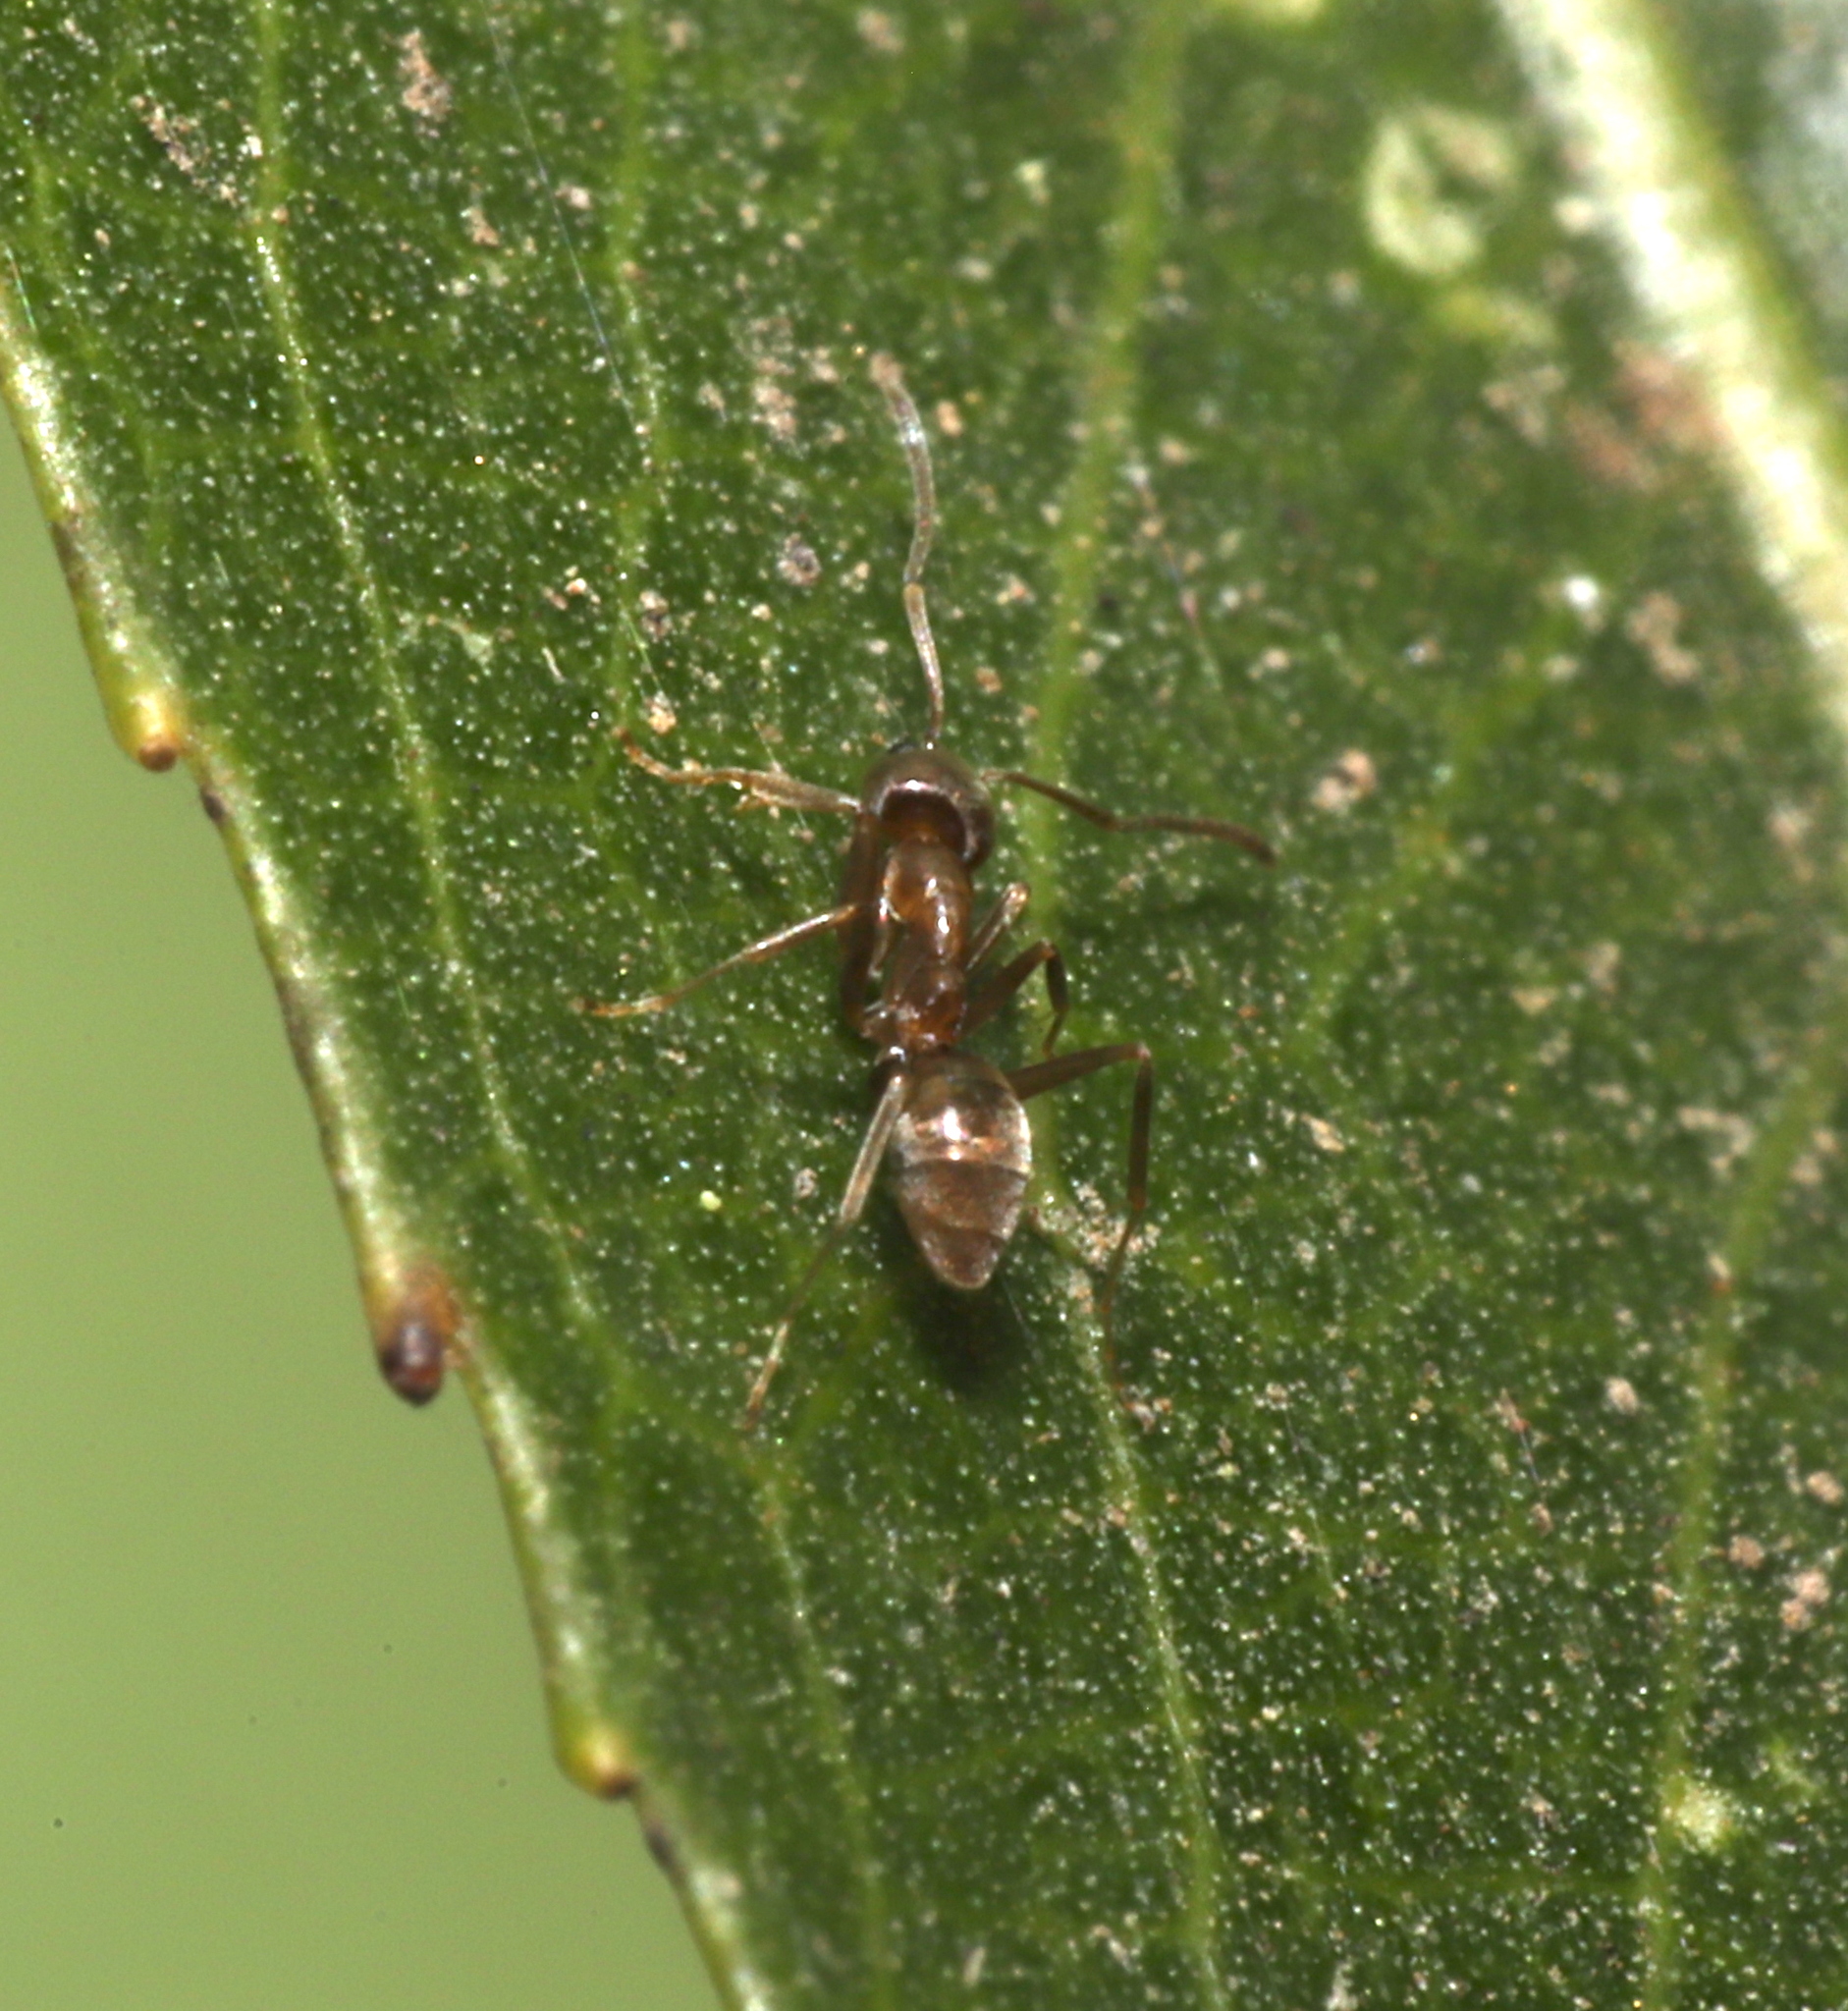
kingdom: Animalia
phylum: Arthropoda
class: Insecta
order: Hymenoptera
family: Formicidae
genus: Linepithema
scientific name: Linepithema humile
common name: Argentine ant
